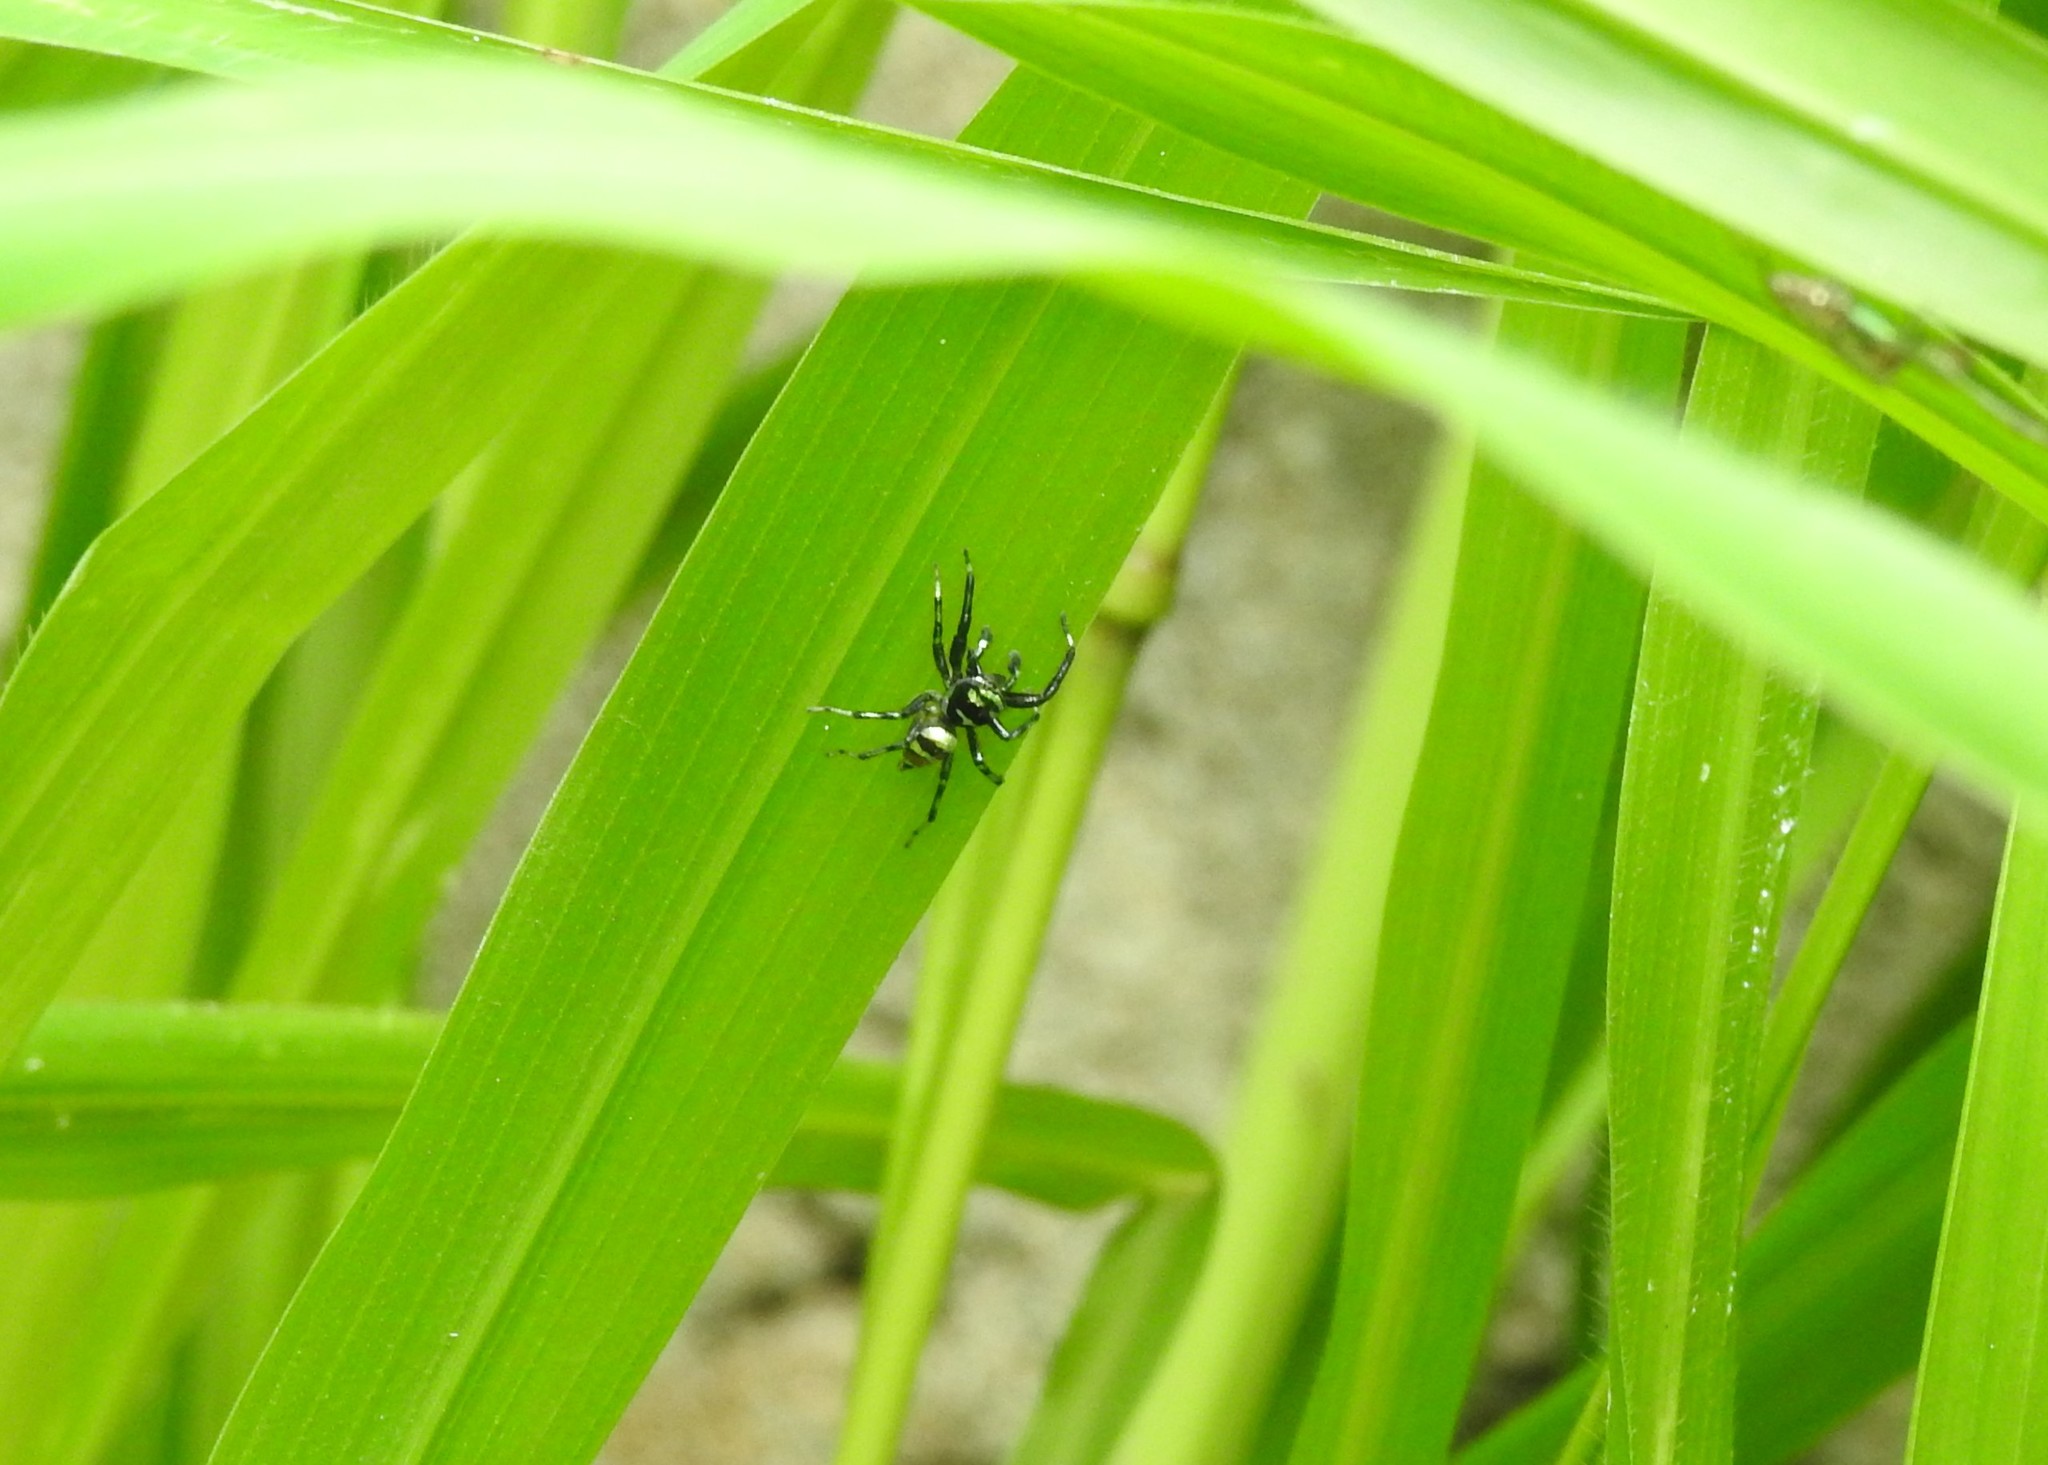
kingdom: Animalia
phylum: Arthropoda
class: Arachnida
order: Araneae
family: Salticidae
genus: Phintella
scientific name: Phintella vittata
